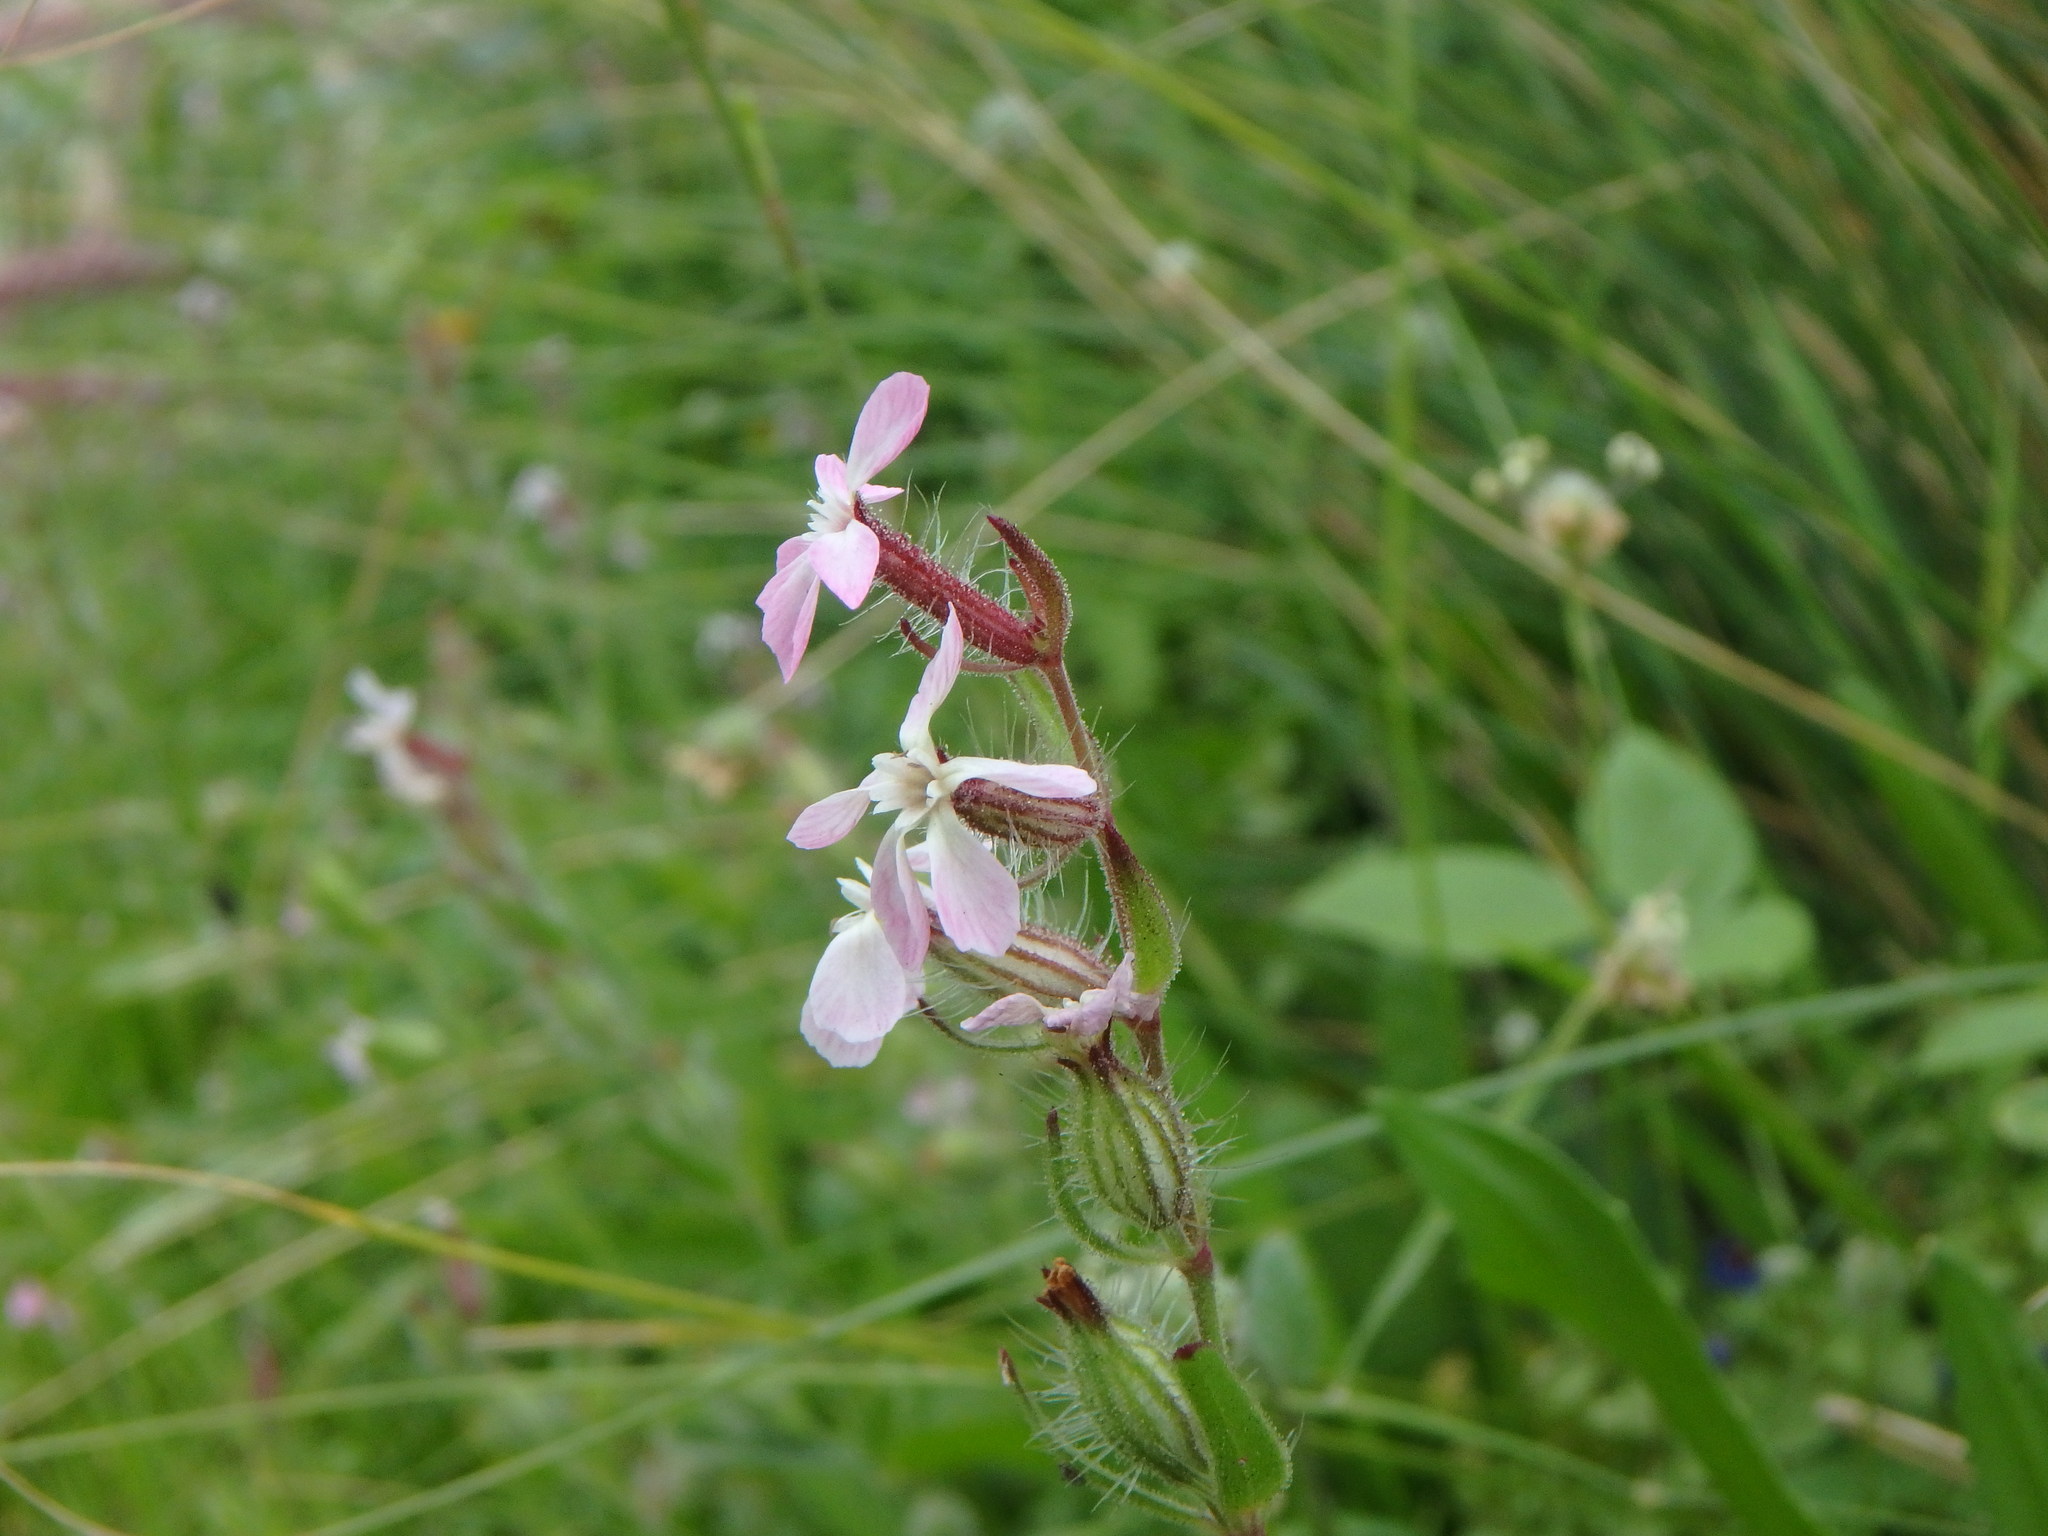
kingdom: Plantae
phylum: Tracheophyta
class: Magnoliopsida
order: Caryophyllales
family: Caryophyllaceae
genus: Silene
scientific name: Silene gallica
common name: Small-flowered catchfly
